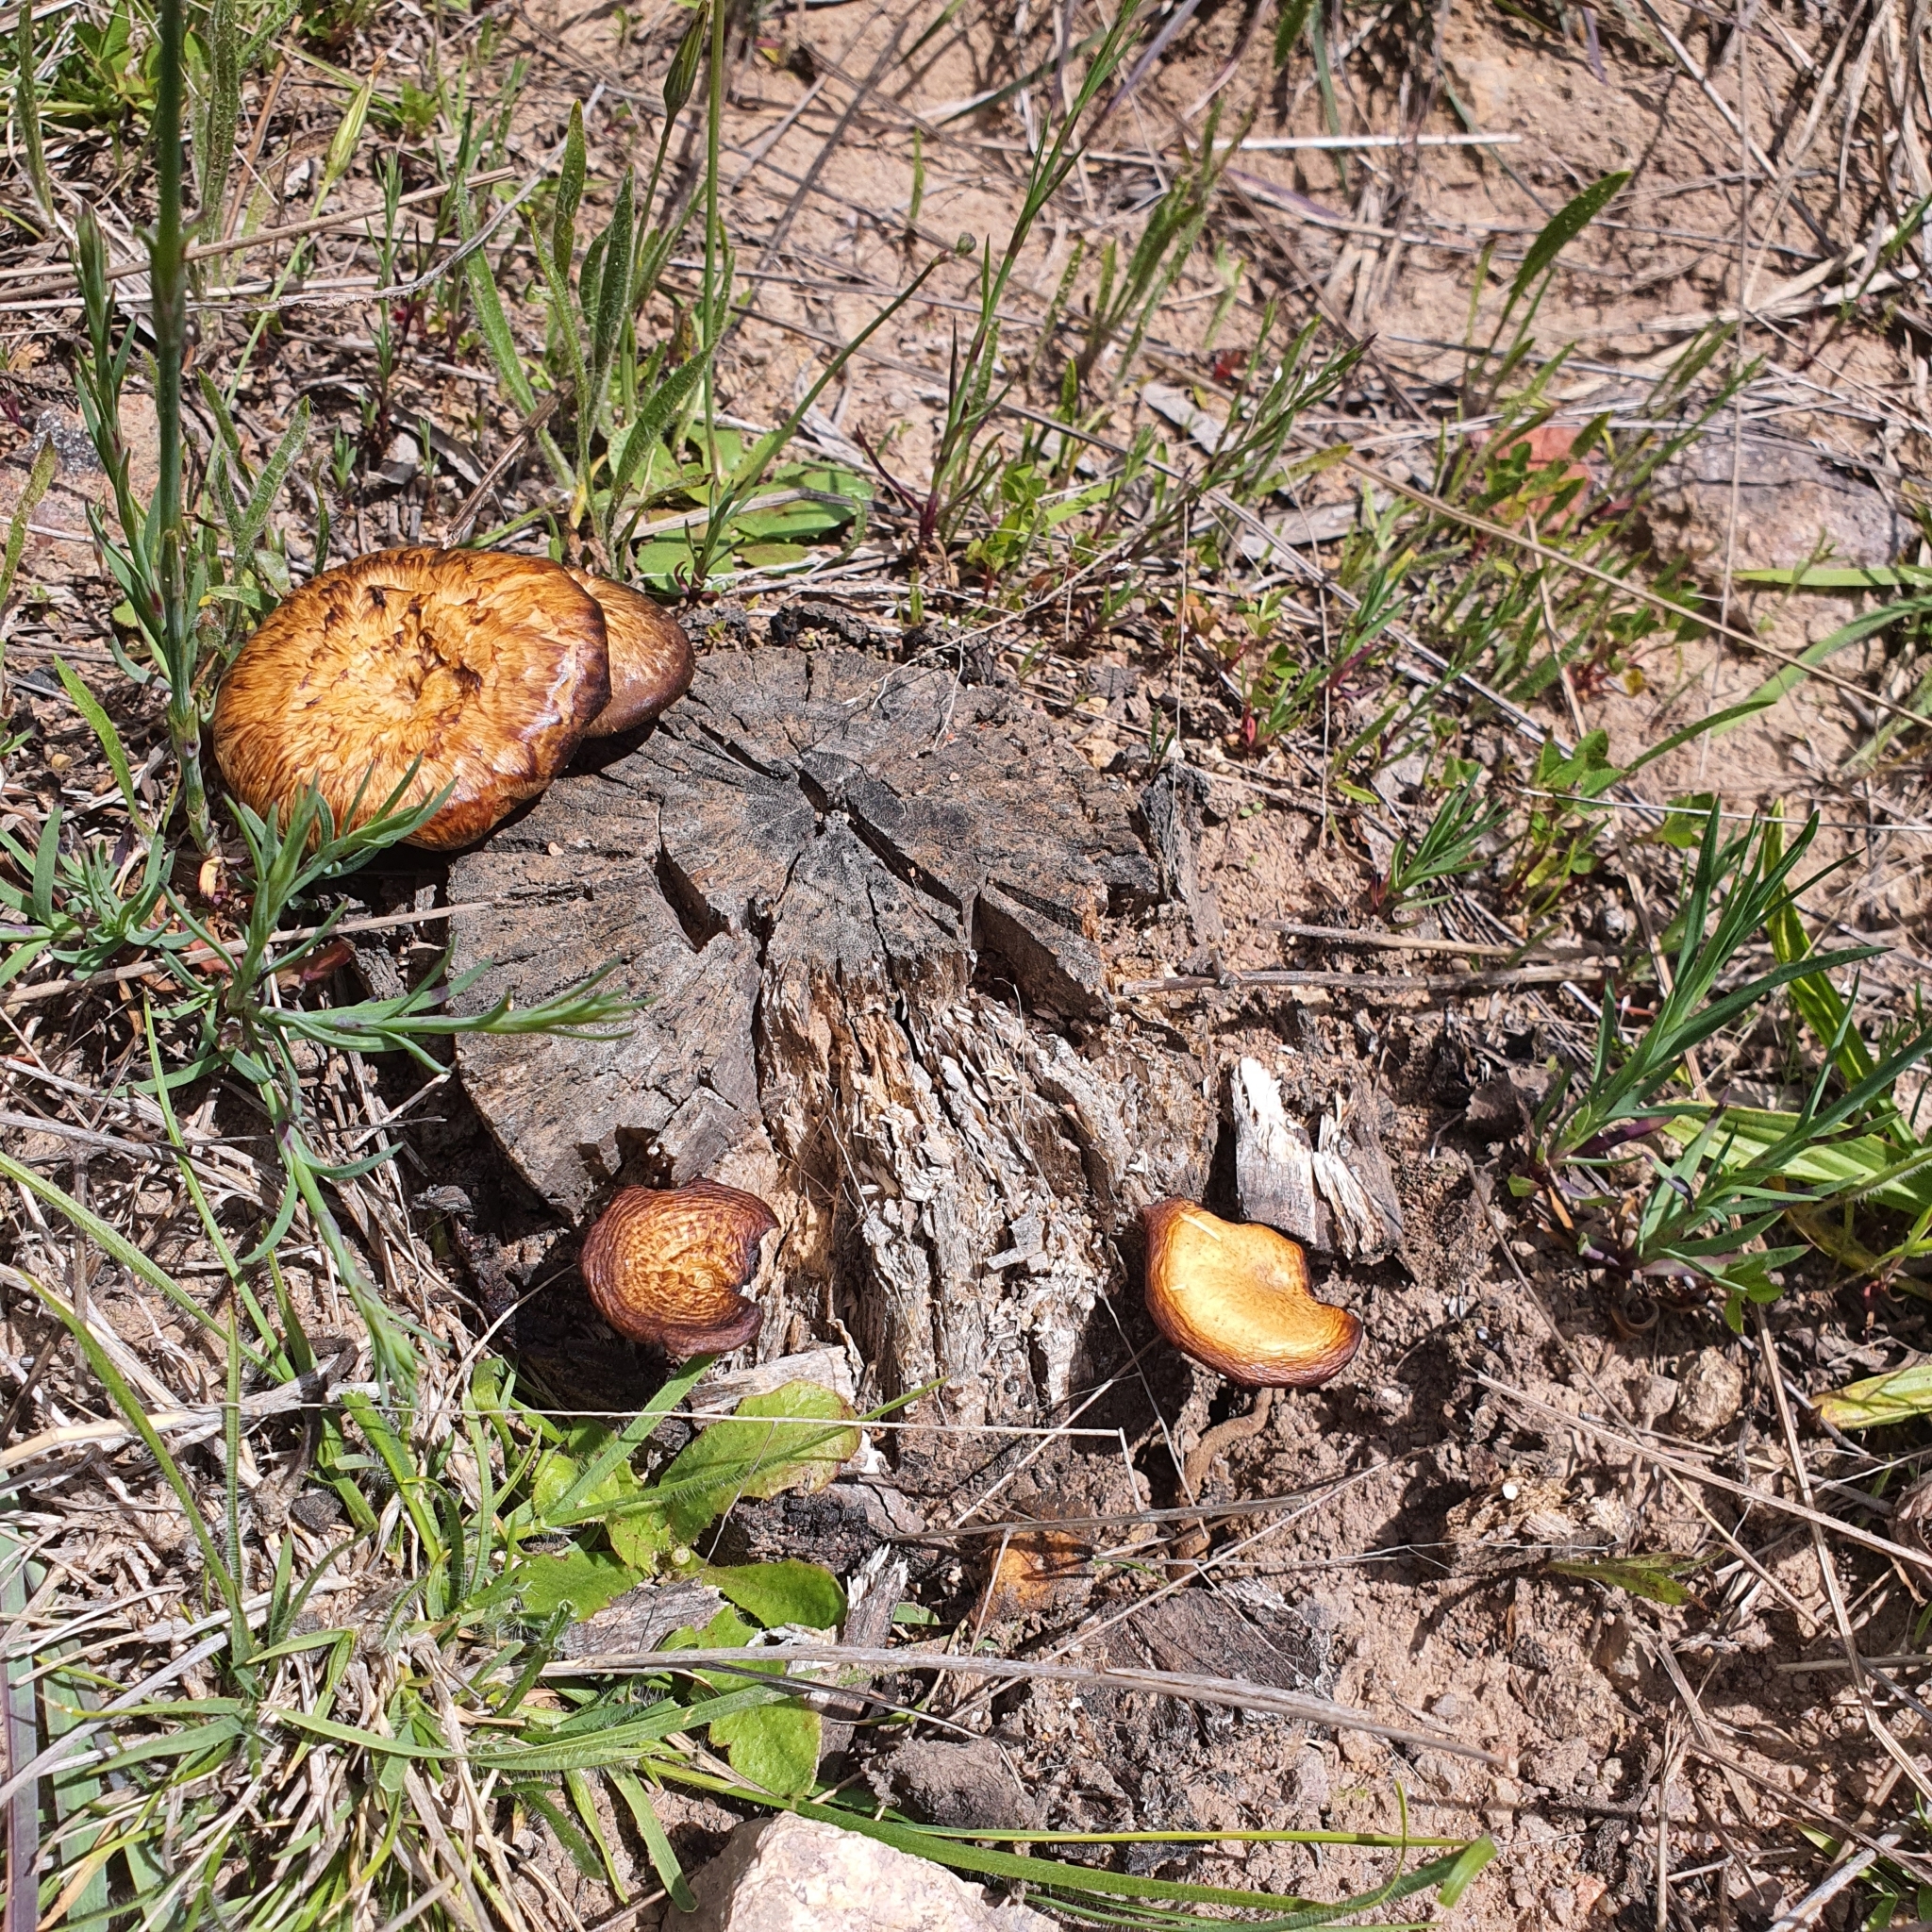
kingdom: Fungi
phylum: Basidiomycota
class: Agaricomycetes
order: Polyporales
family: Polyporaceae
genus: Lentinus
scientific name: Lentinus arcularius
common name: Spring polypore
